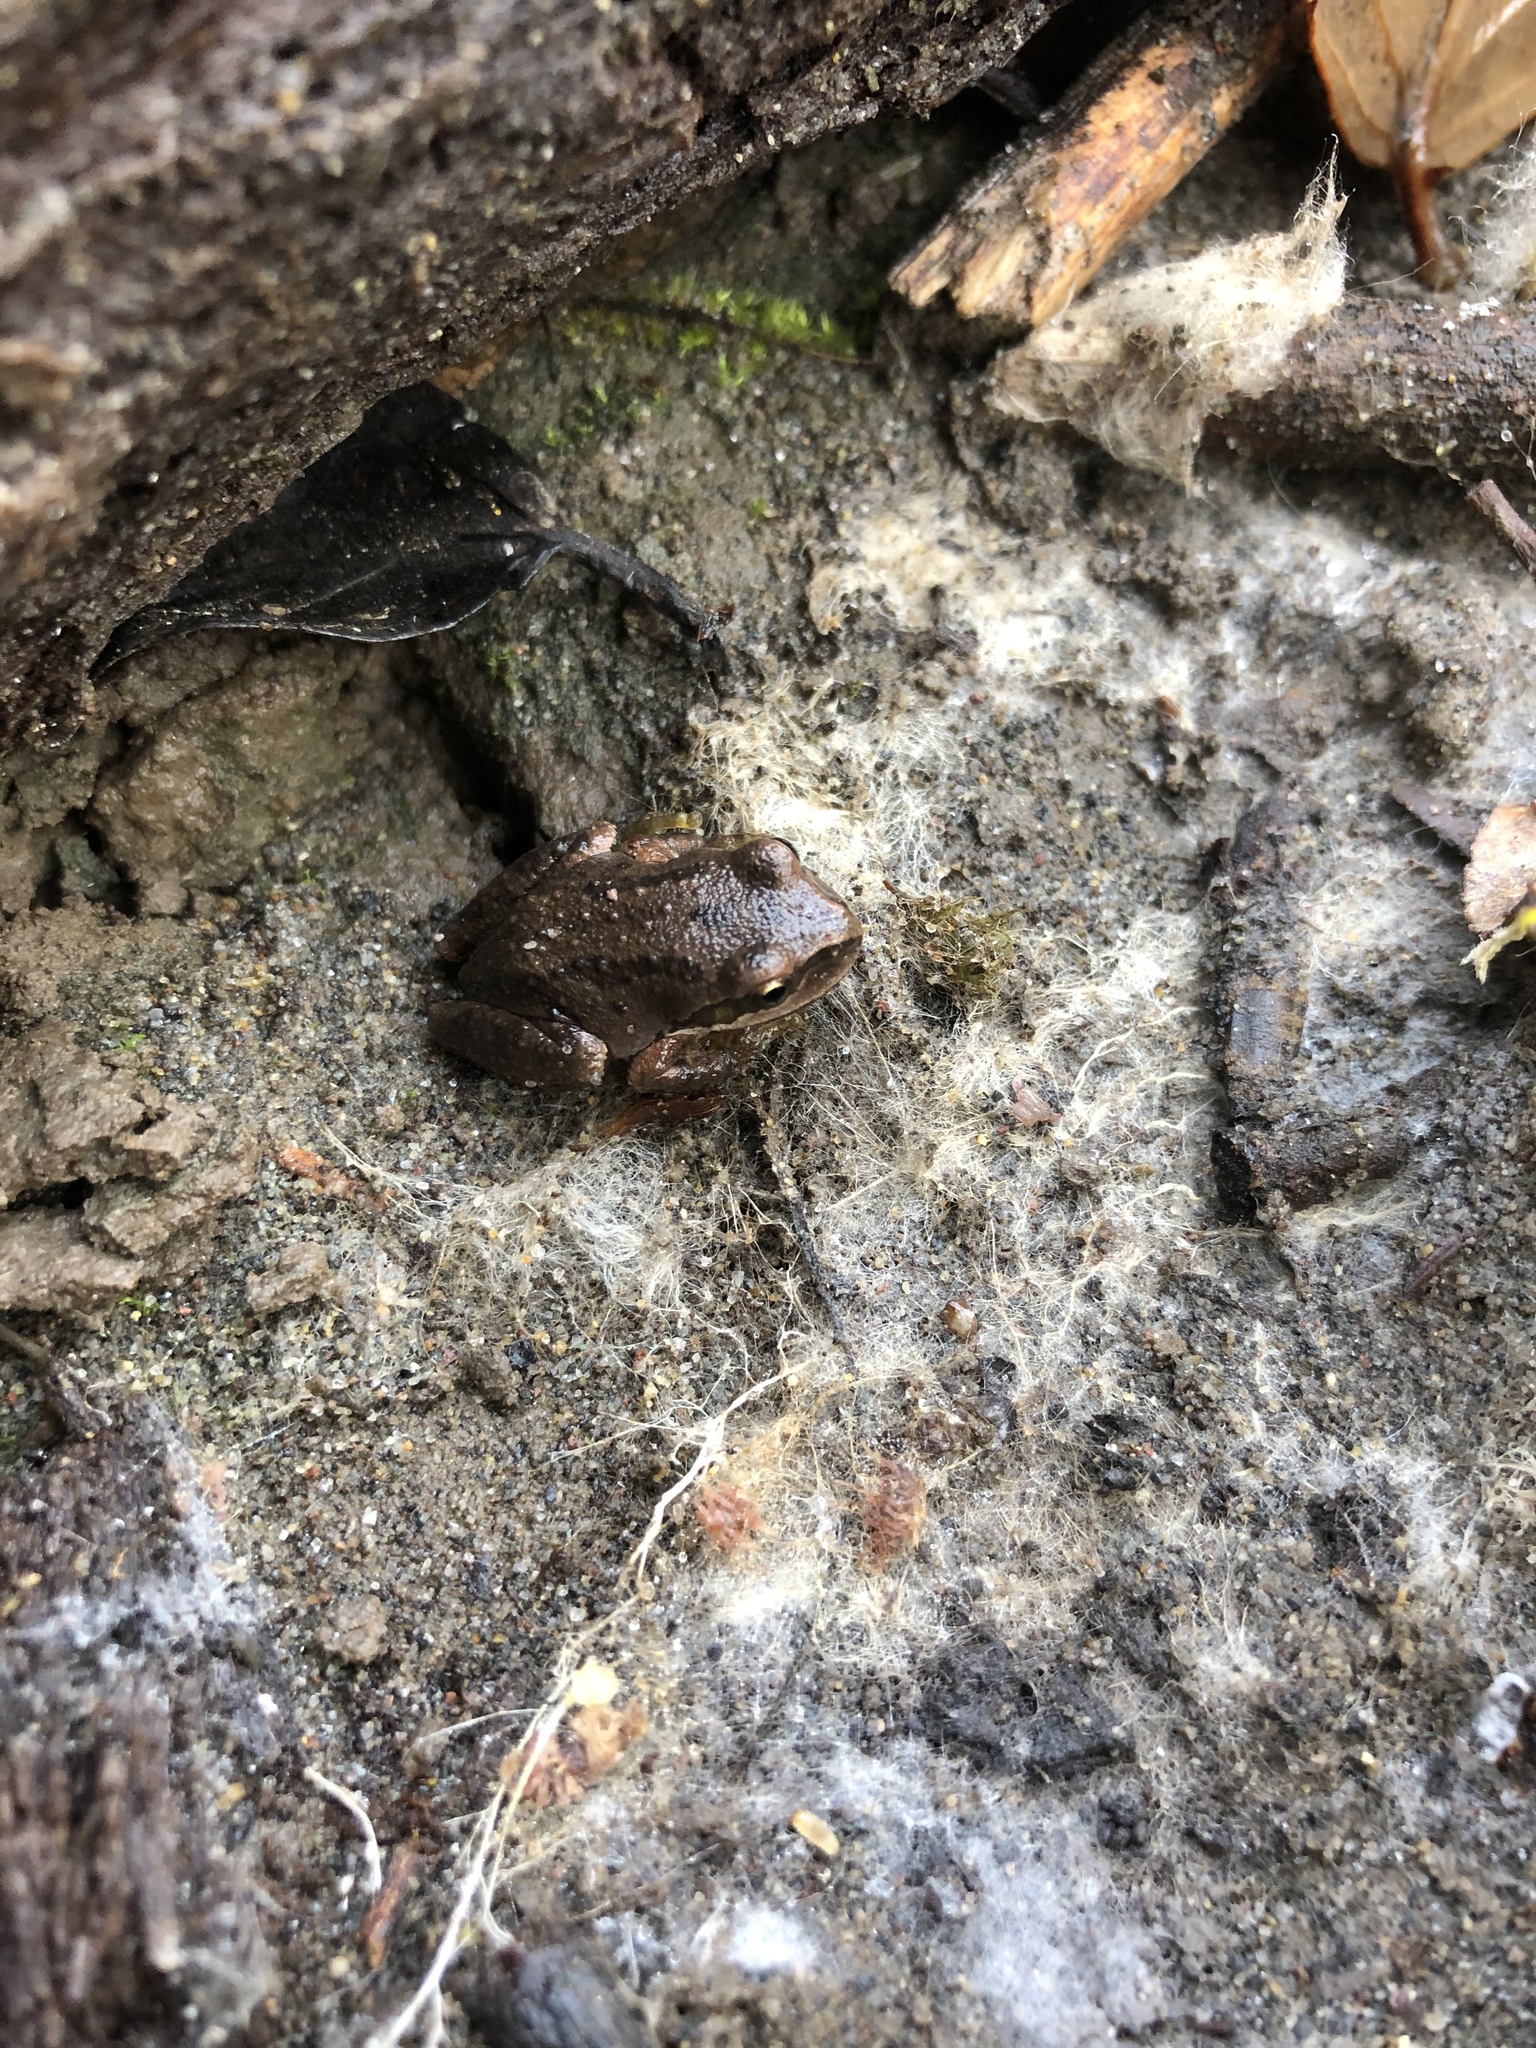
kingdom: Animalia
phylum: Chordata
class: Amphibia
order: Anura
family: Hylidae
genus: Pseudacris
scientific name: Pseudacris regilla
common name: Pacific chorus frog
